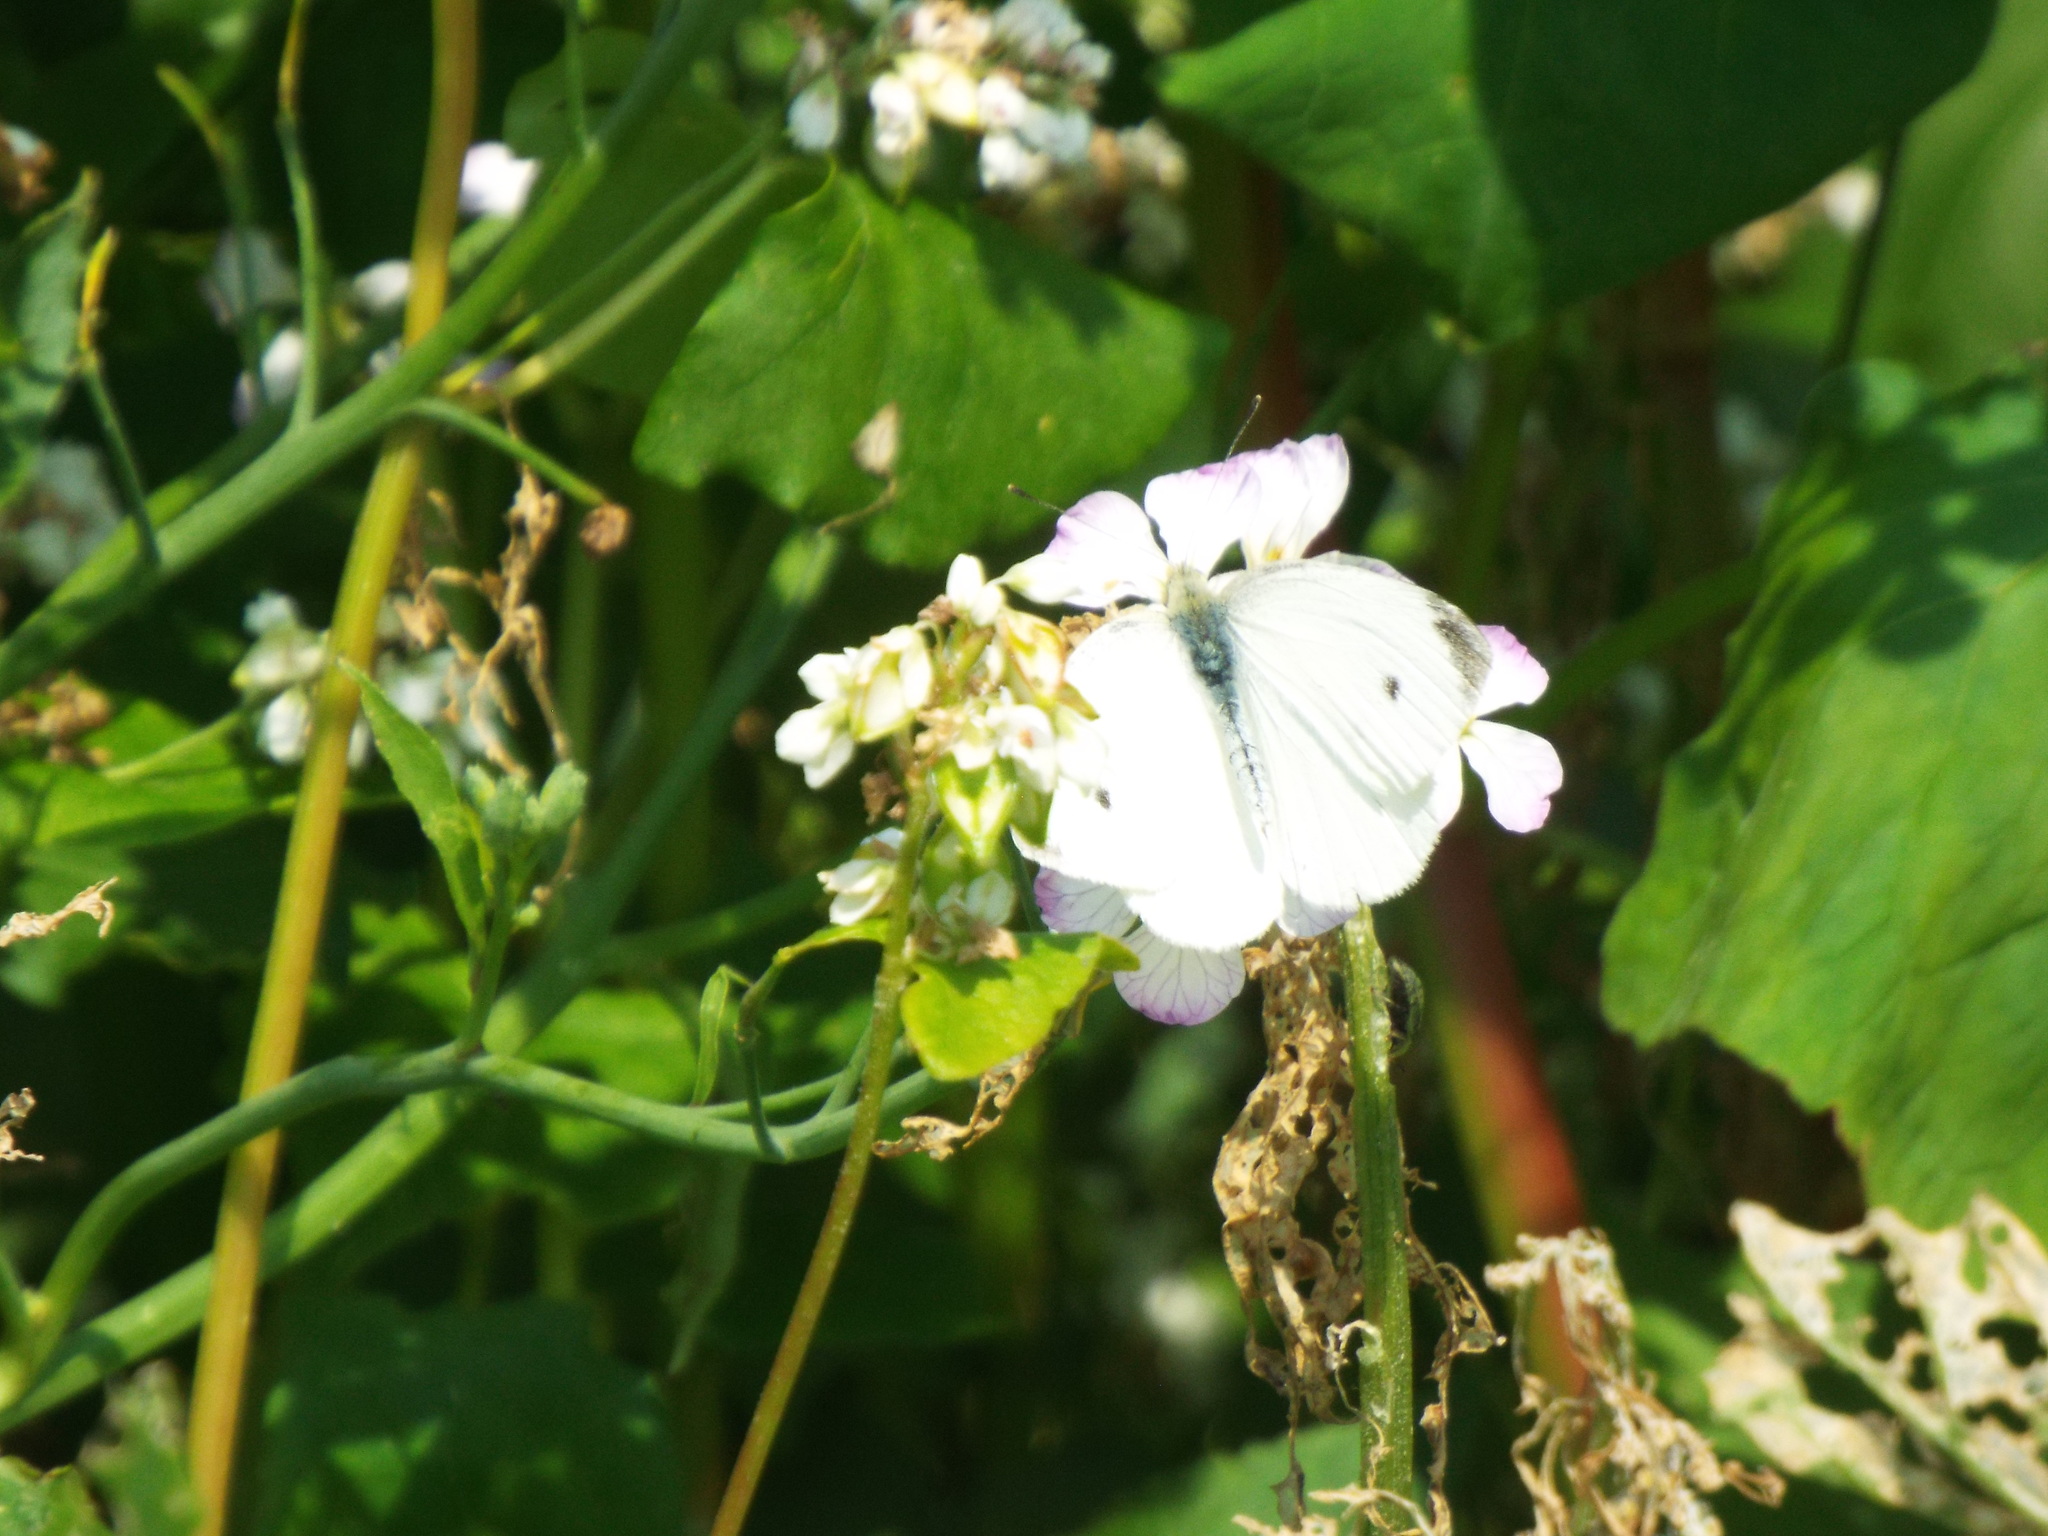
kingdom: Animalia
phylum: Arthropoda
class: Insecta
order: Lepidoptera
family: Pieridae
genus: Pieris
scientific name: Pieris rapae
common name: Small white
